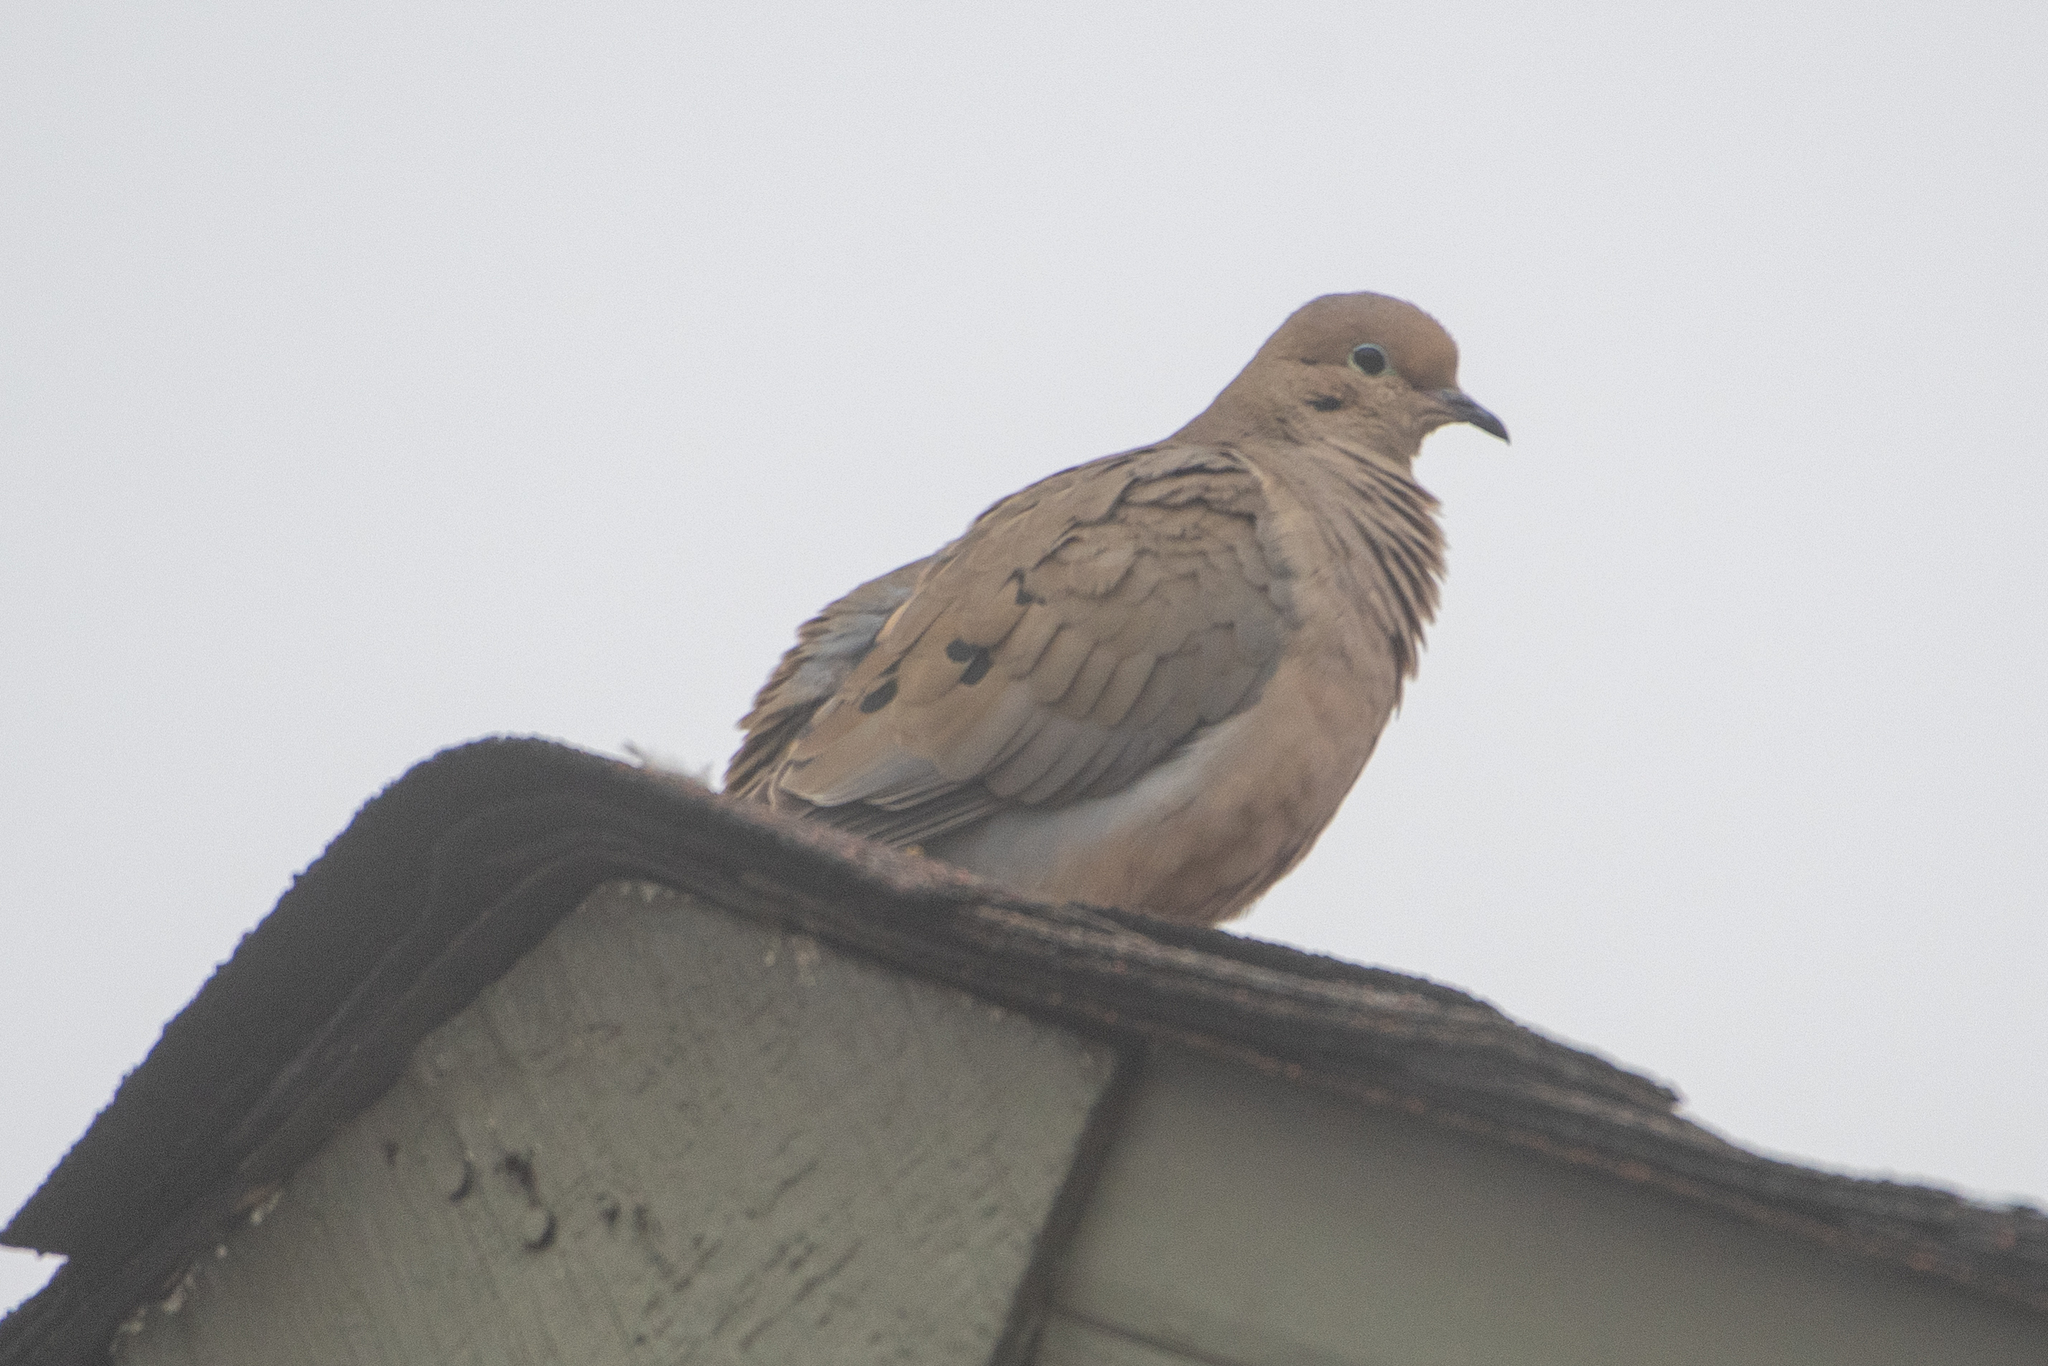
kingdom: Animalia
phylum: Chordata
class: Aves
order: Columbiformes
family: Columbidae
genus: Zenaida
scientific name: Zenaida macroura
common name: Mourning dove
